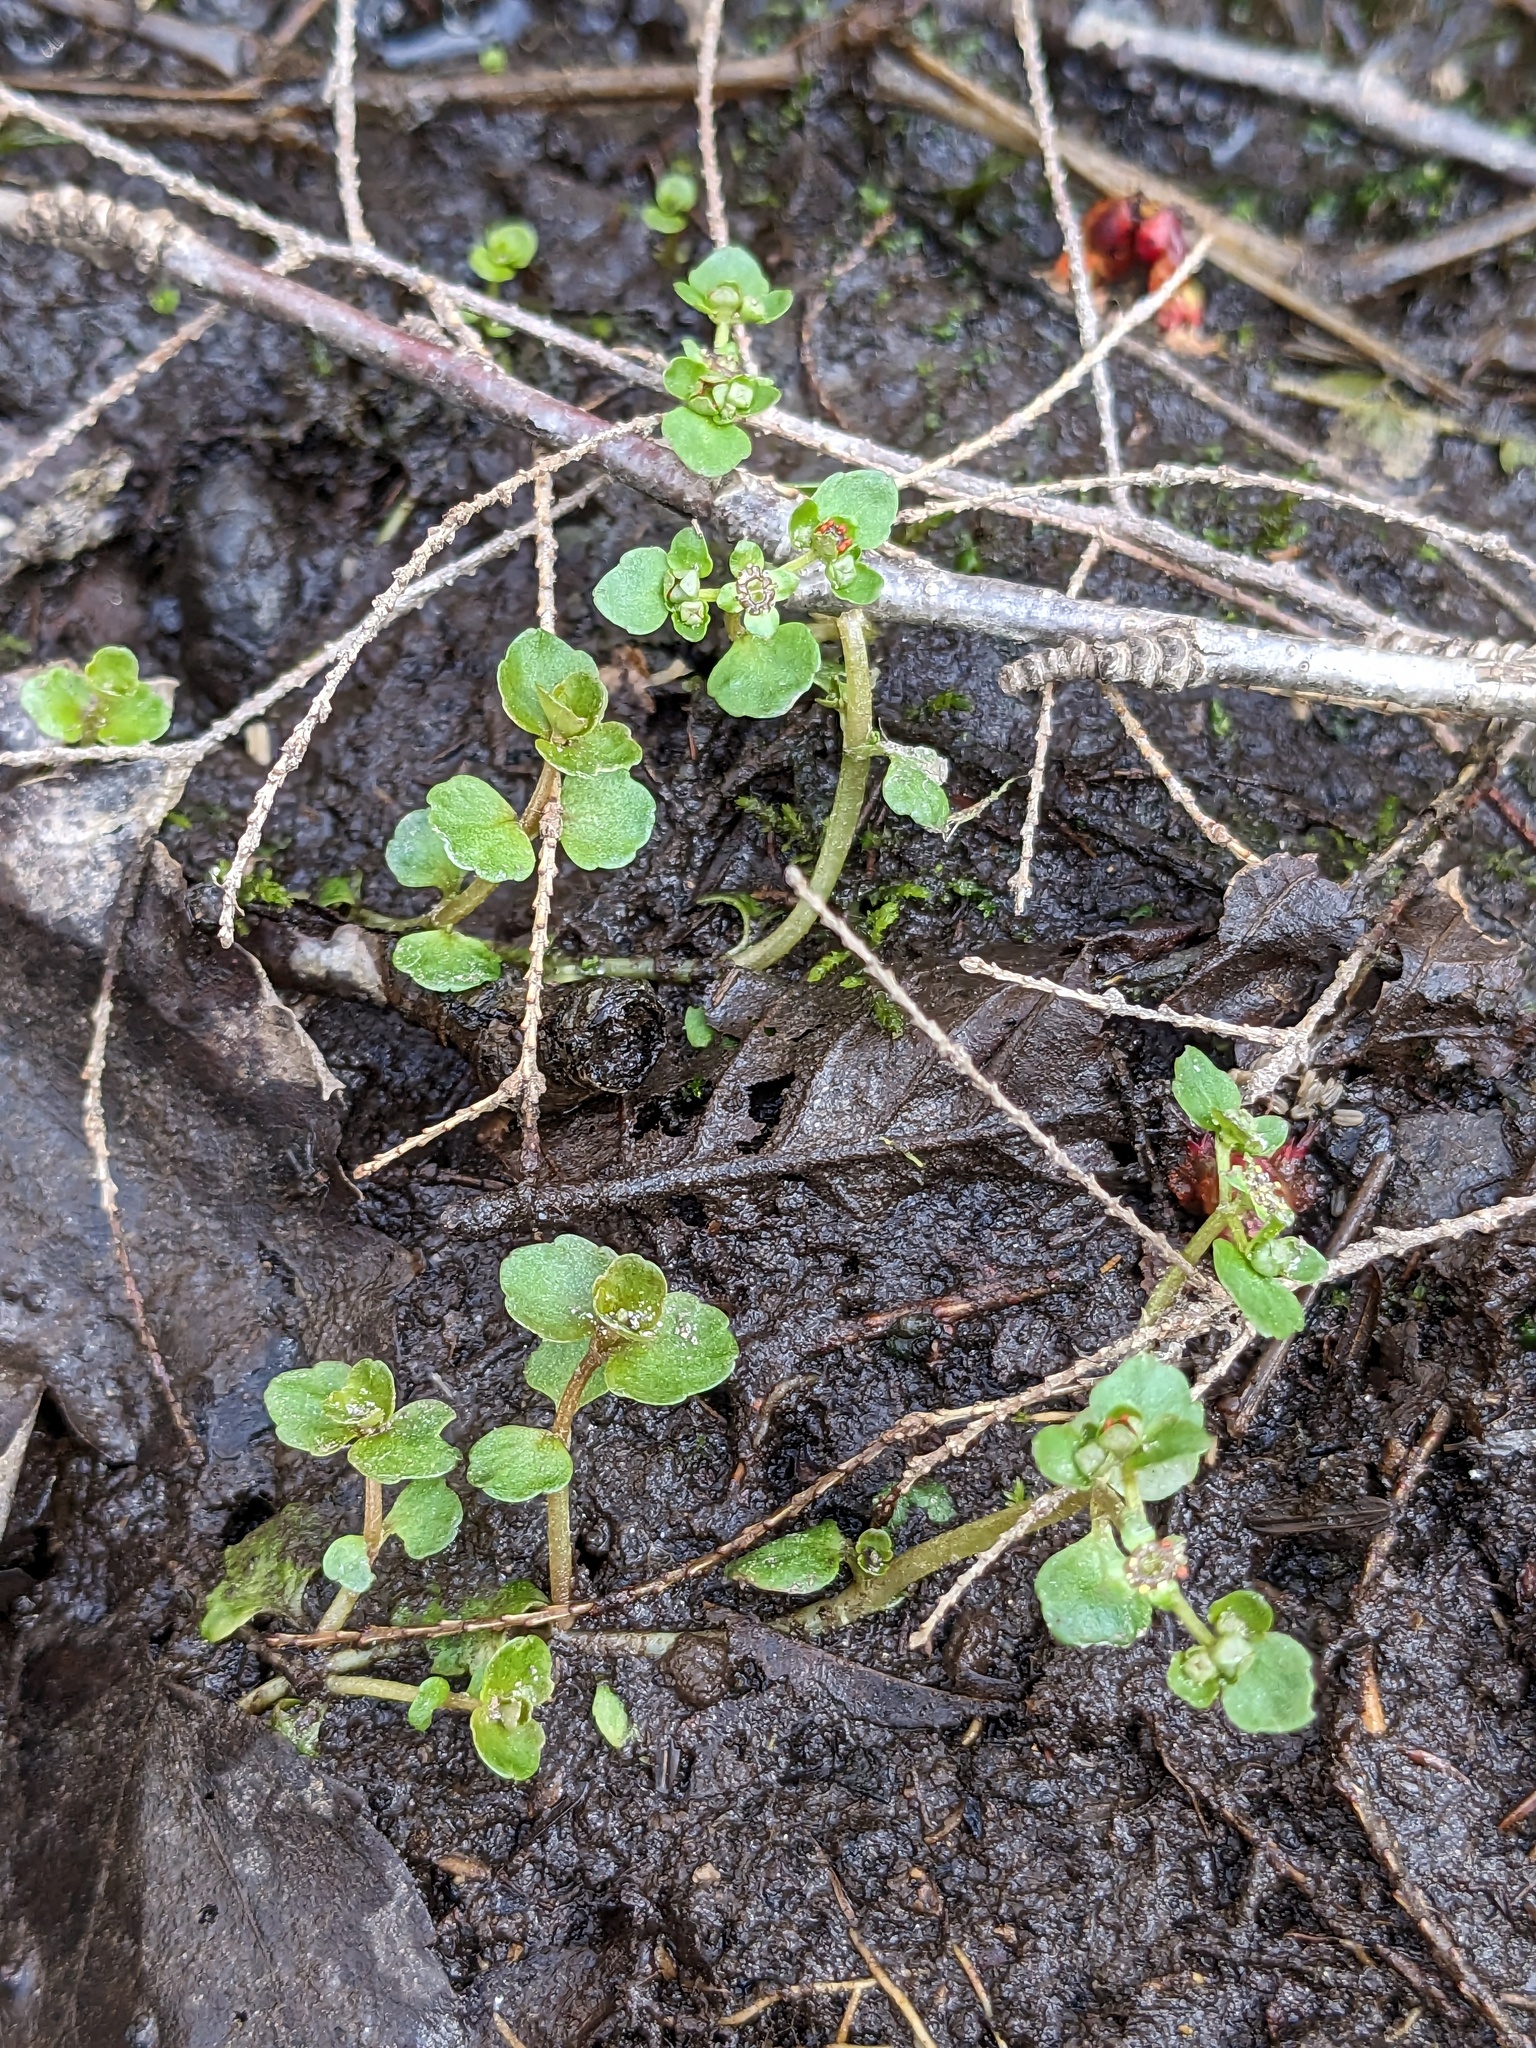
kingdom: Plantae
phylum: Tracheophyta
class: Magnoliopsida
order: Saxifragales
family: Saxifragaceae
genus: Chrysosplenium
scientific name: Chrysosplenium americanum
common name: American golden-saxifrage
